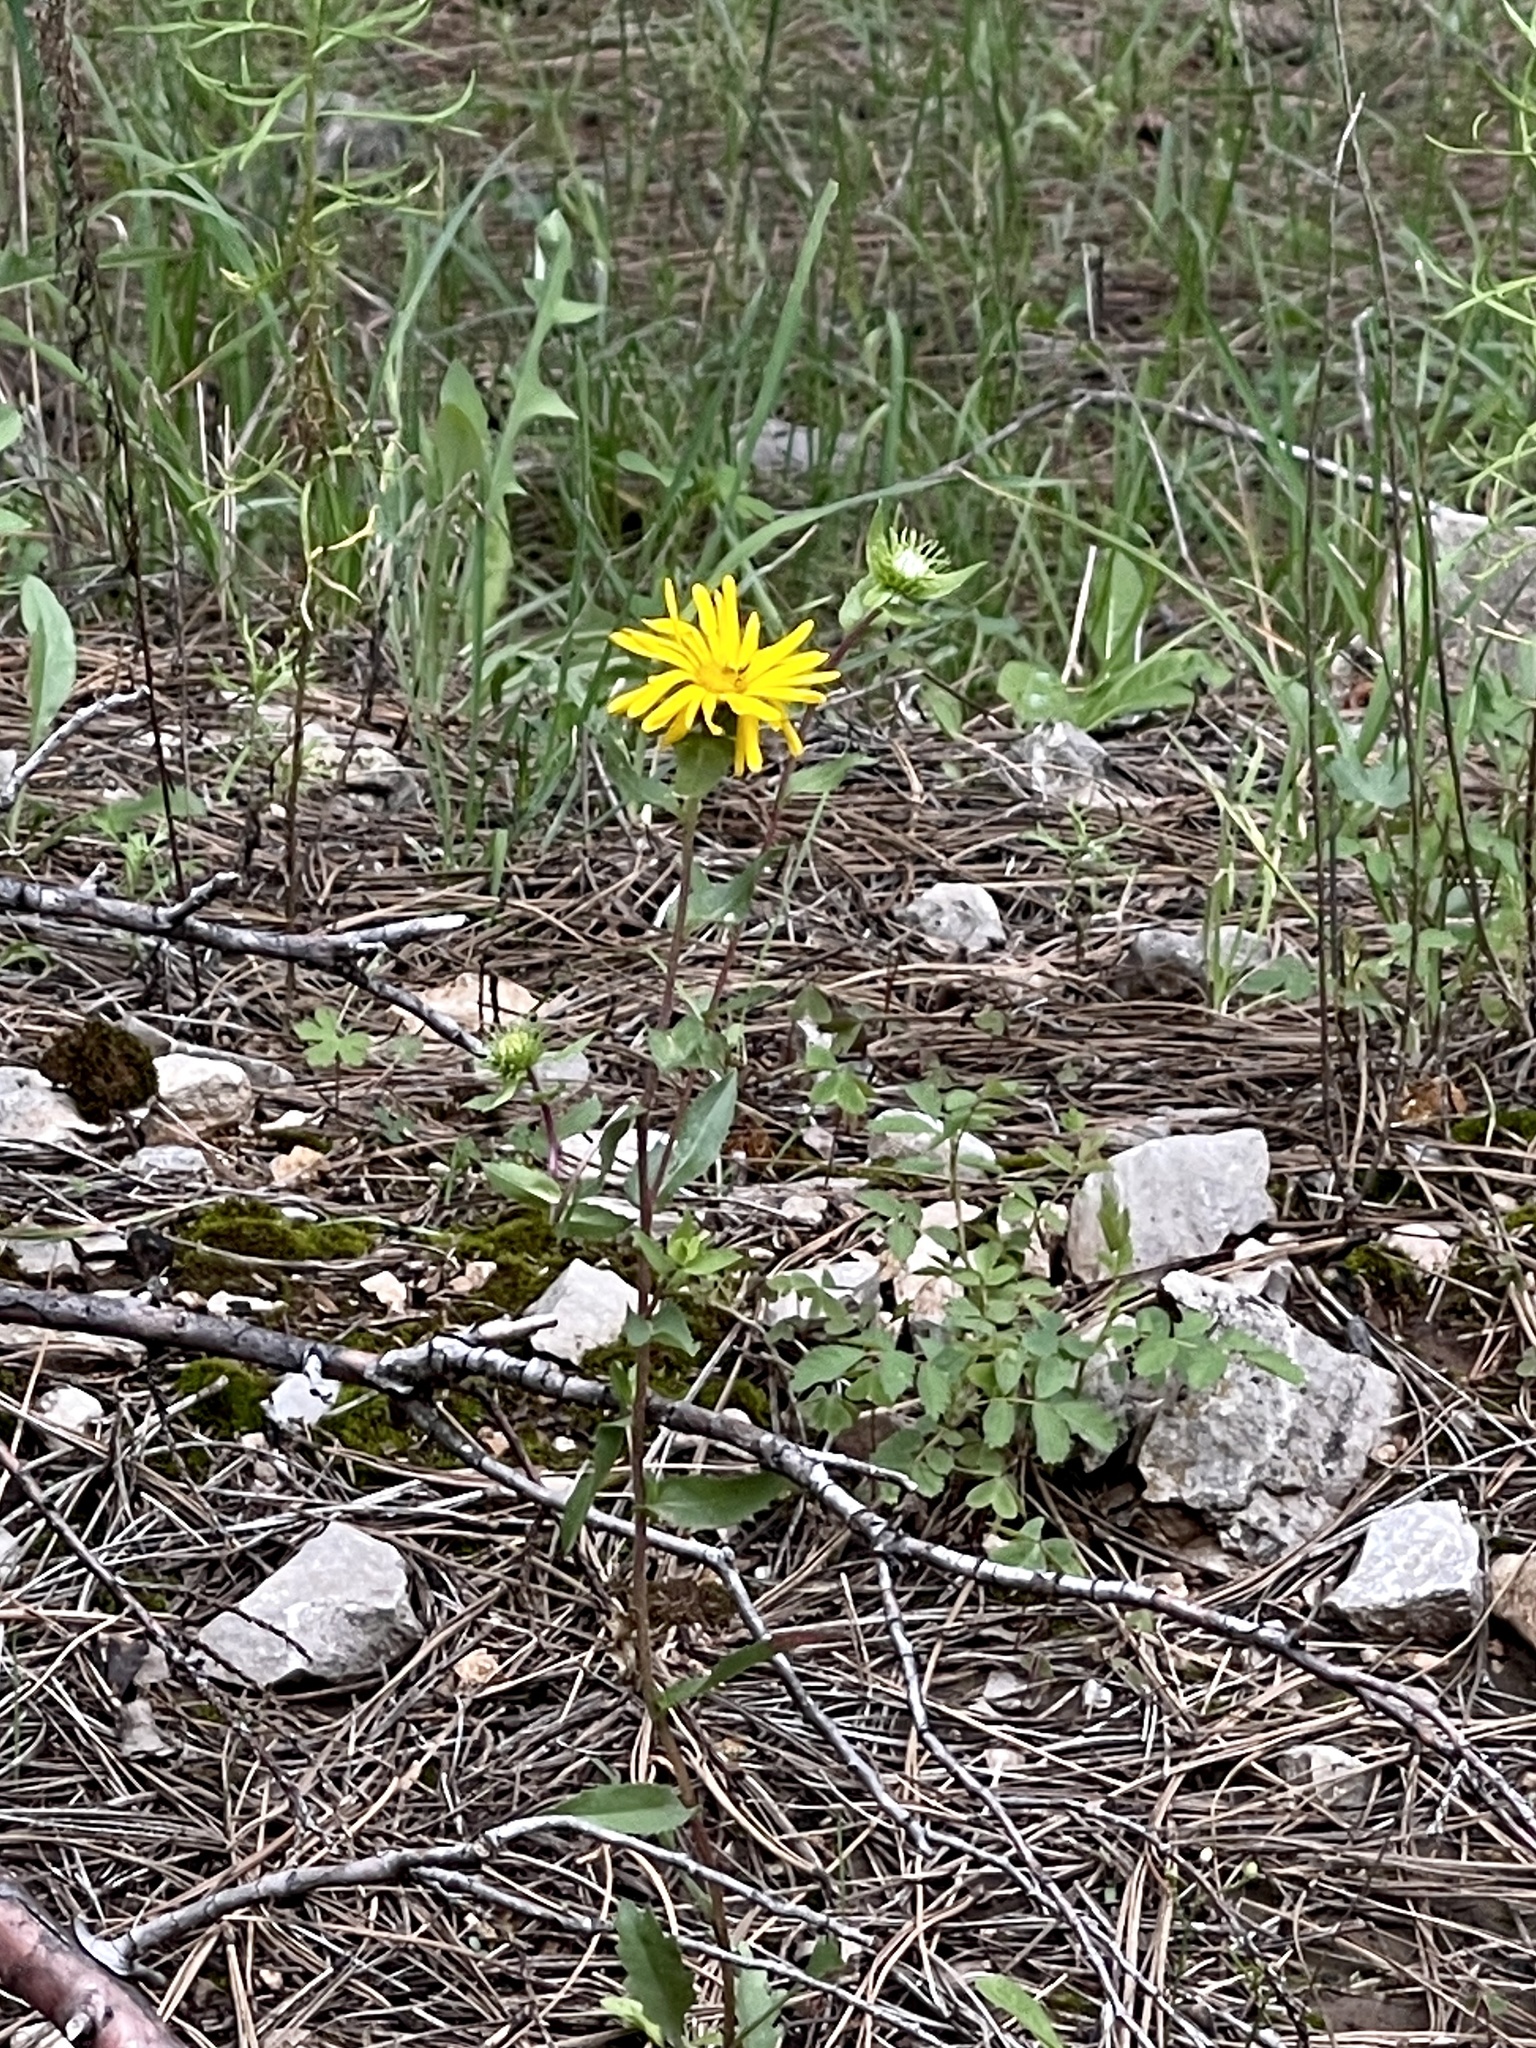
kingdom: Plantae
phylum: Tracheophyta
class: Magnoliopsida
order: Asterales
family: Asteraceae
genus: Grindelia
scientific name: Grindelia scabra
